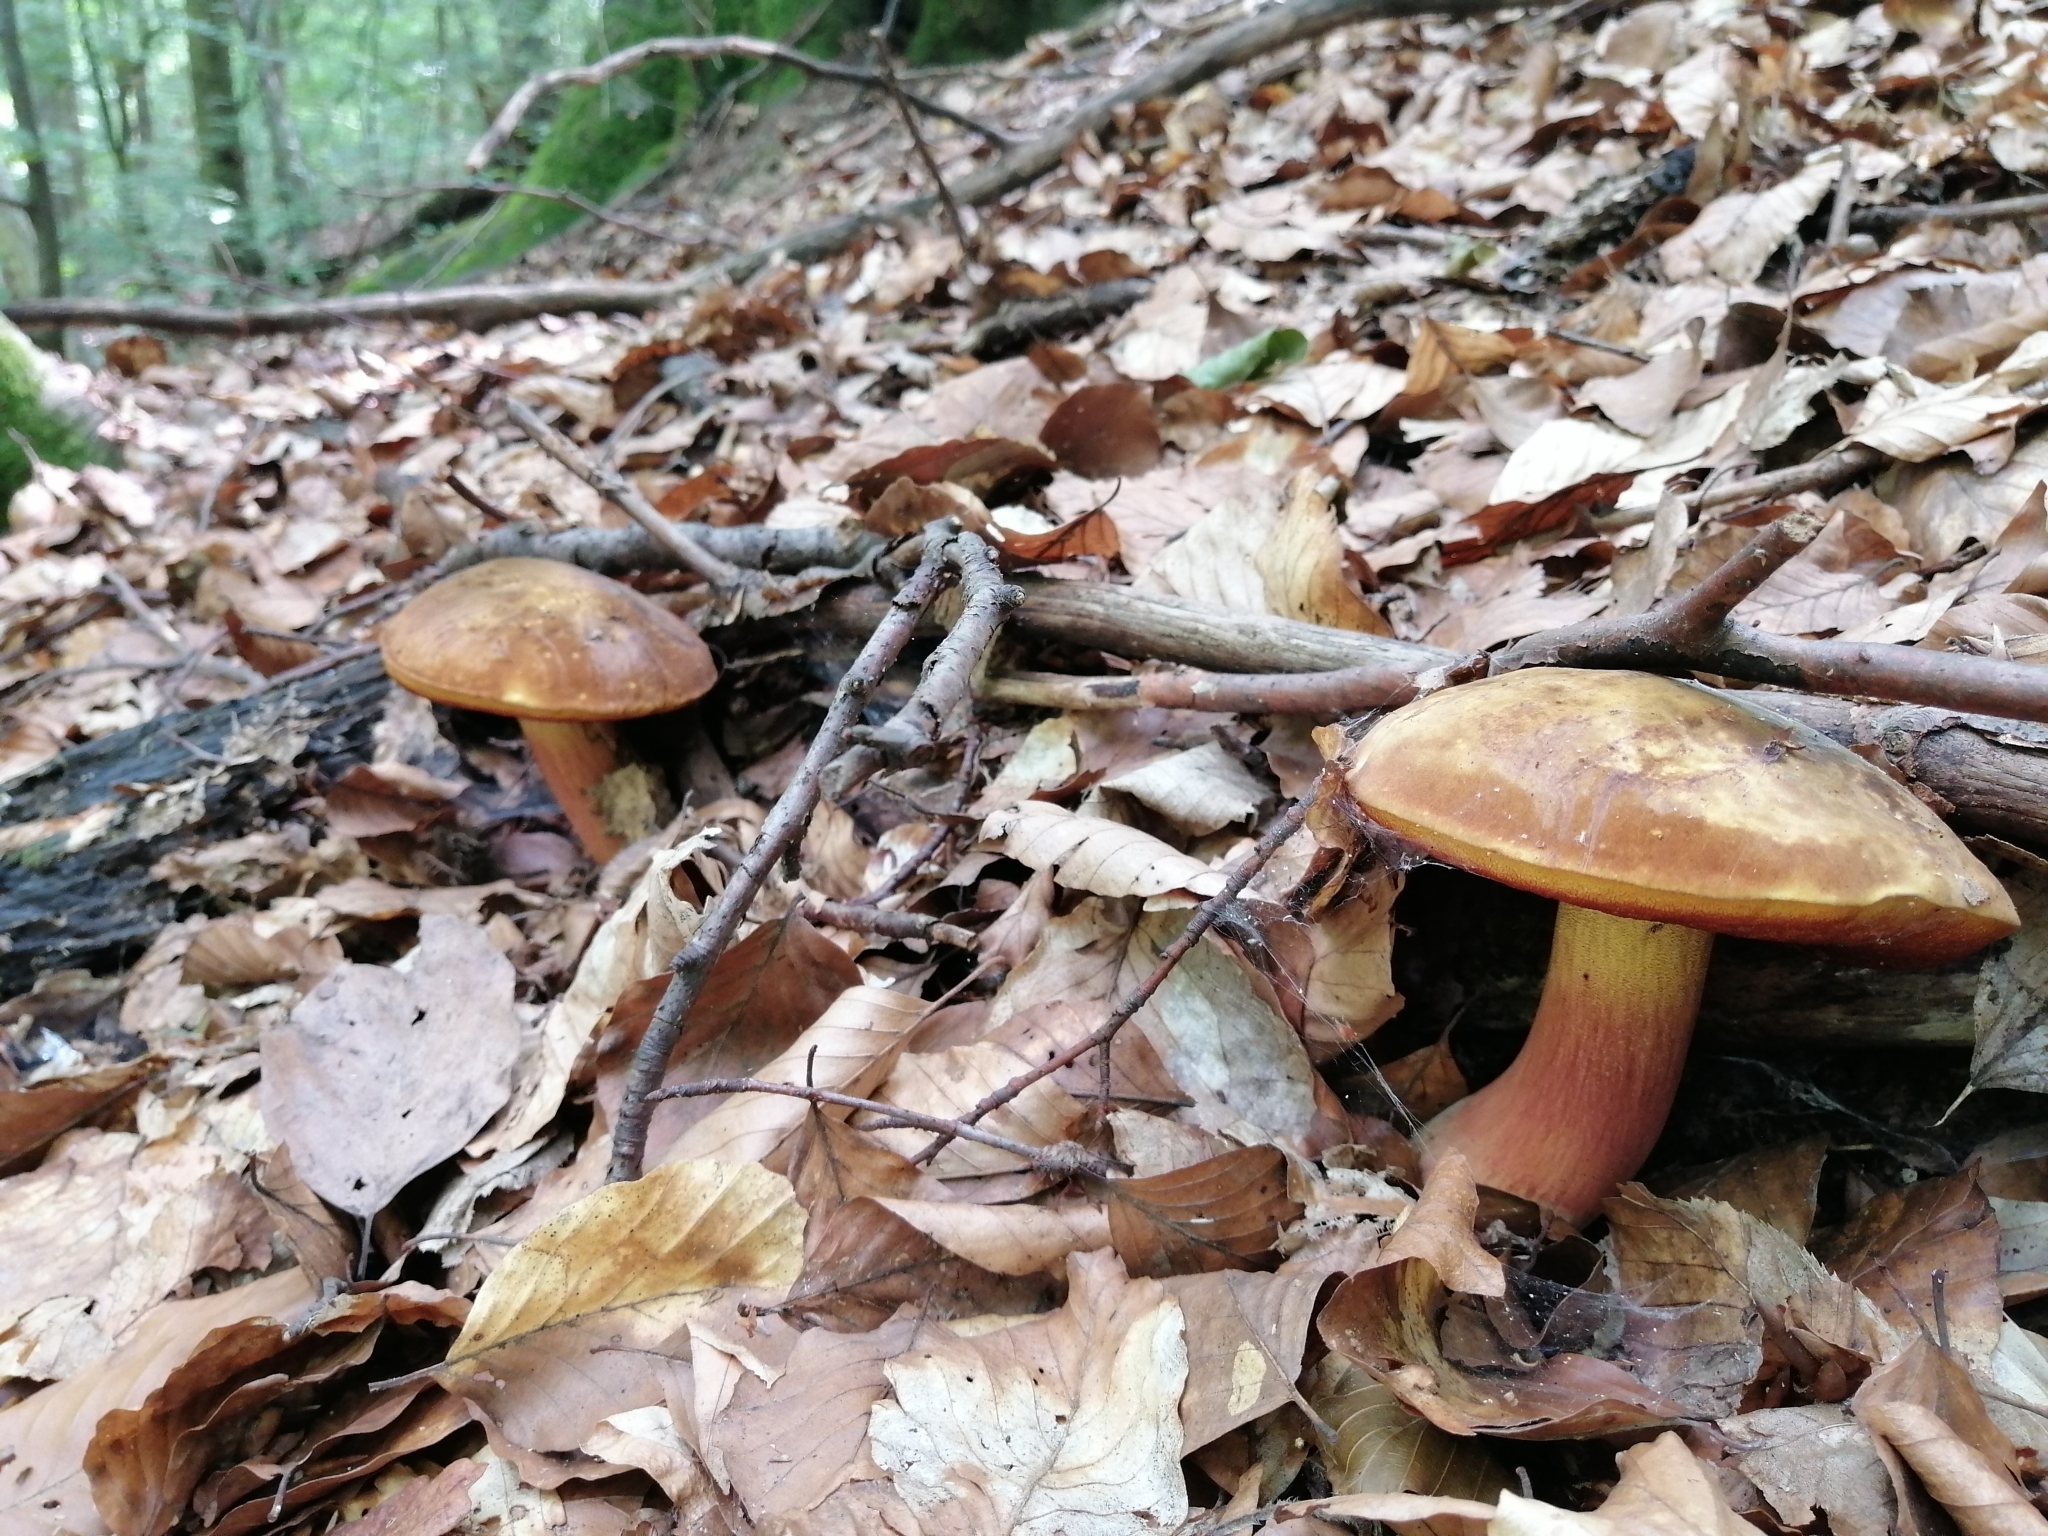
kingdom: Fungi
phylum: Basidiomycota
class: Agaricomycetes
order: Boletales
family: Boletaceae
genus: Neoboletus
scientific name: Neoboletus xanthopus
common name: False yellow bolete
